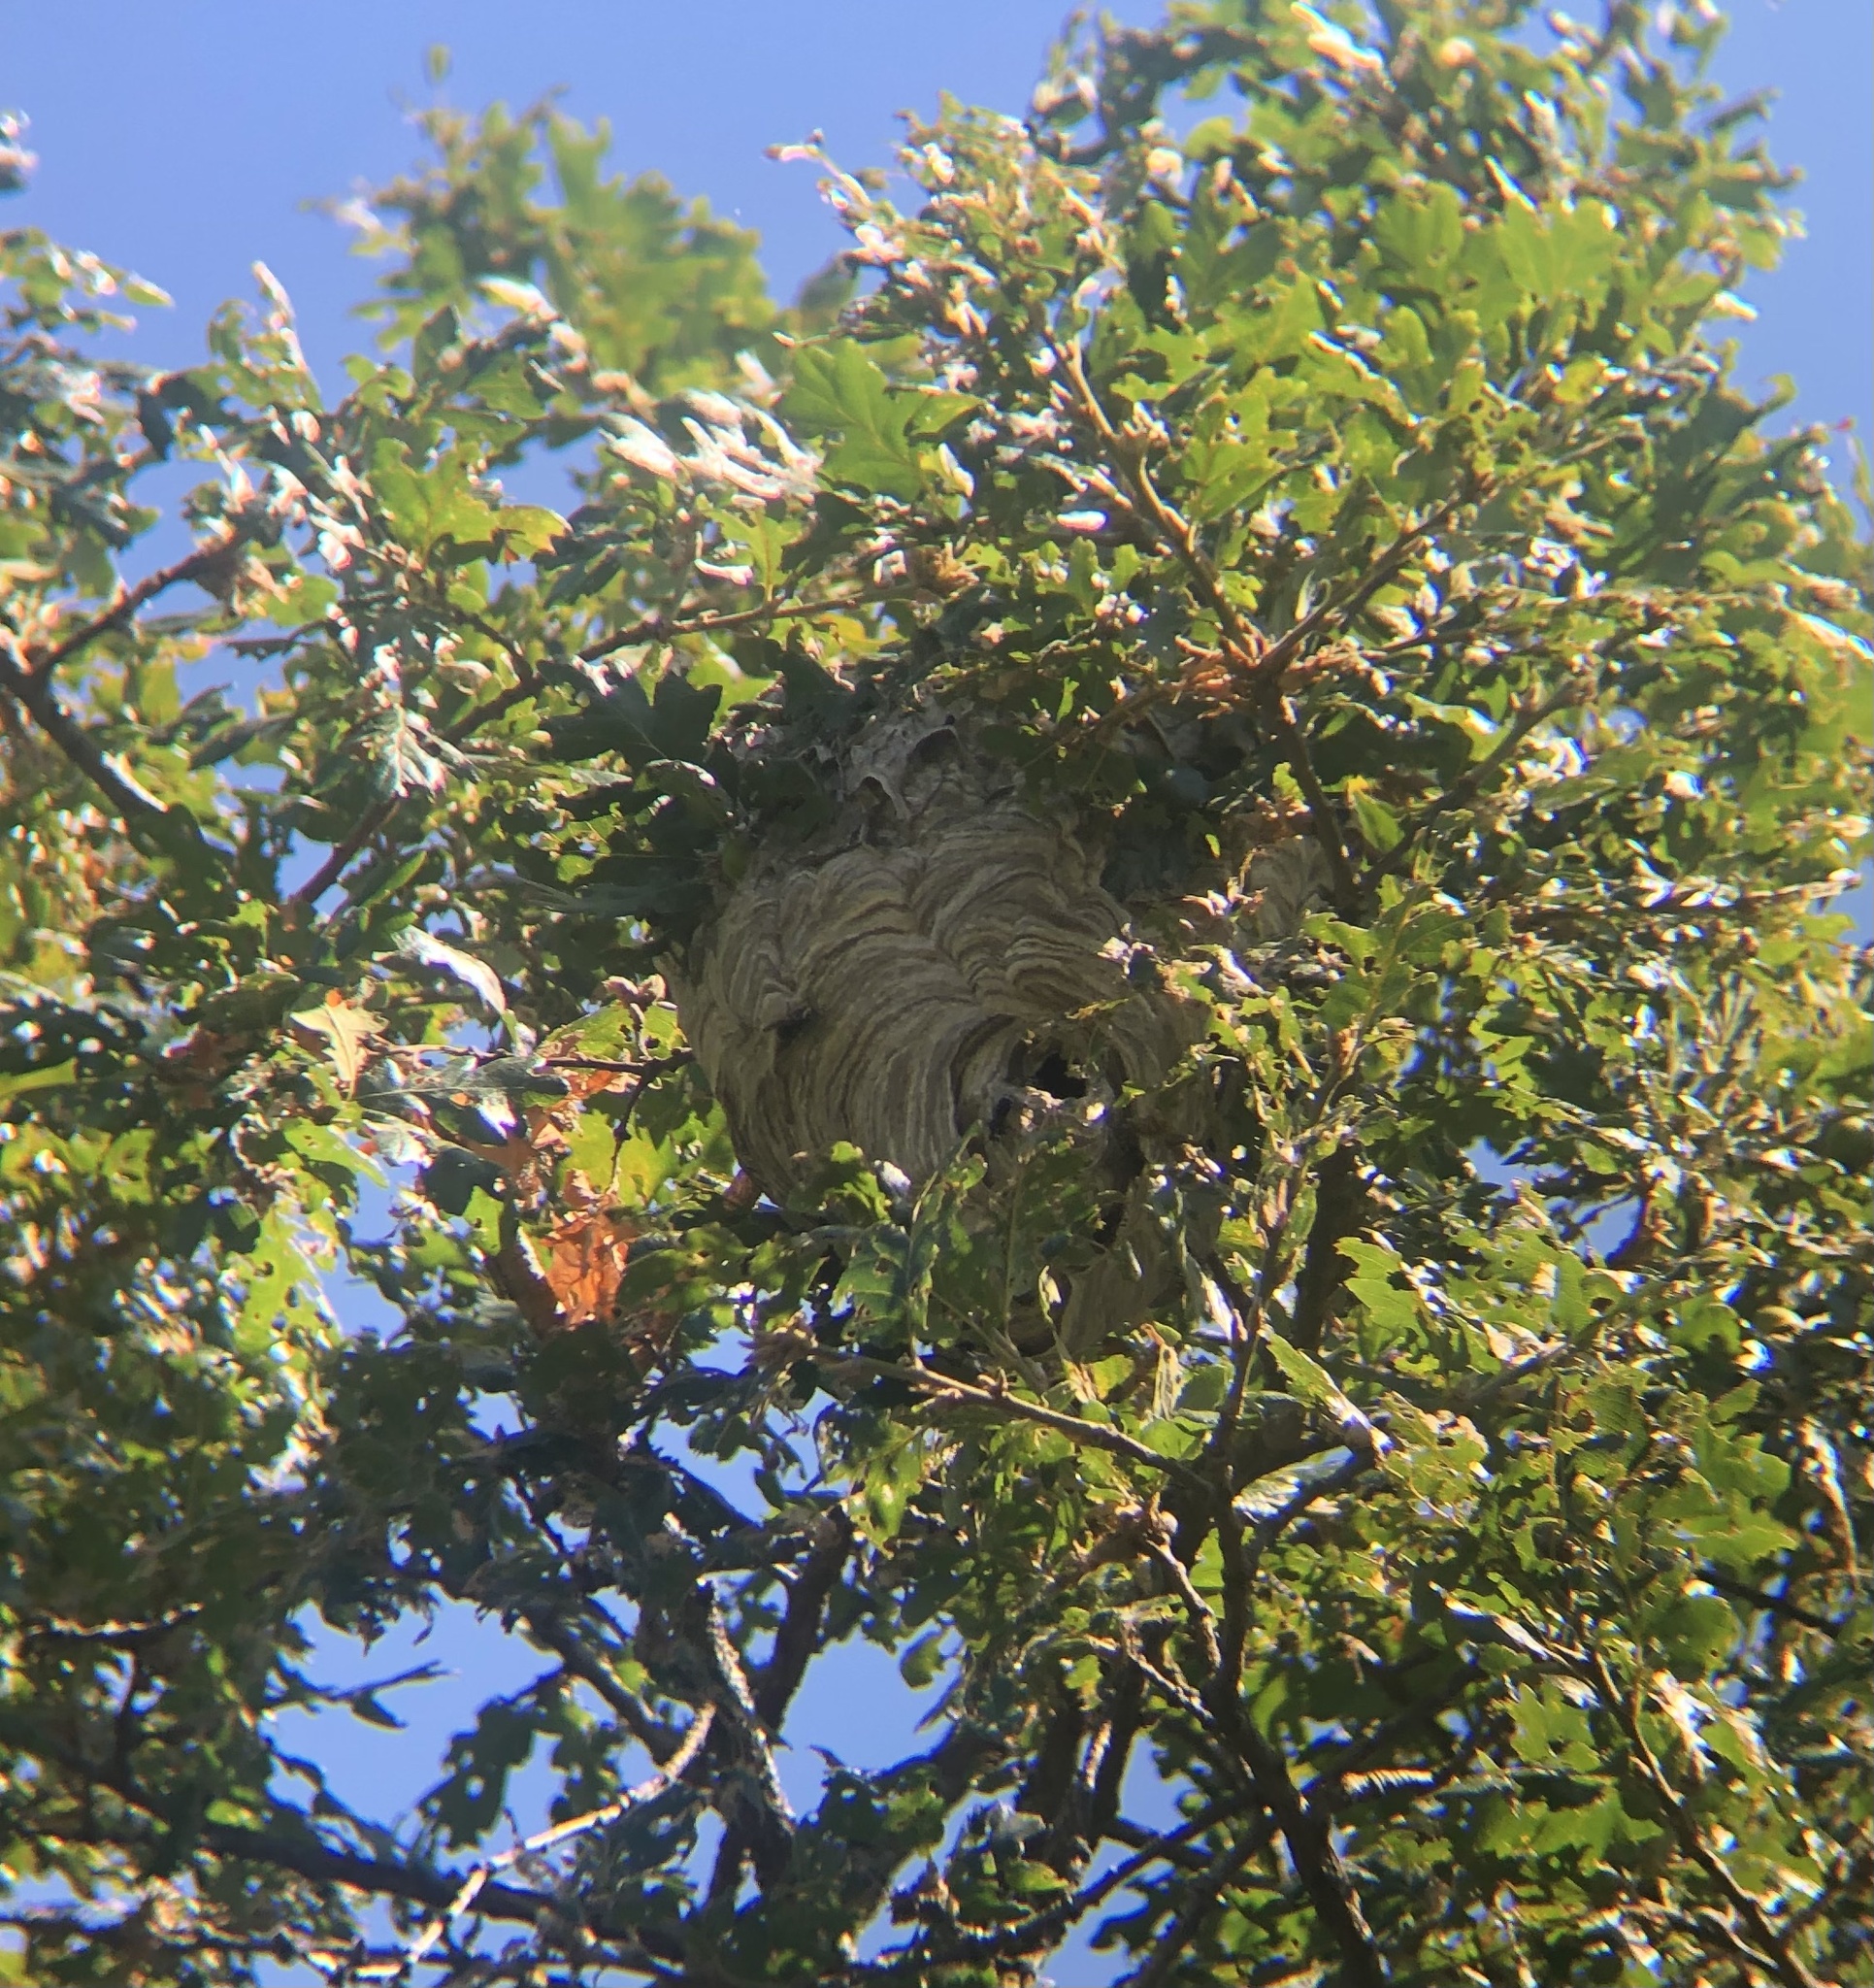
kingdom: Animalia
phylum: Arthropoda
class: Insecta
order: Hymenoptera
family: Vespidae
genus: Dolichovespula
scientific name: Dolichovespula maculata
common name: Bald-faced hornet
